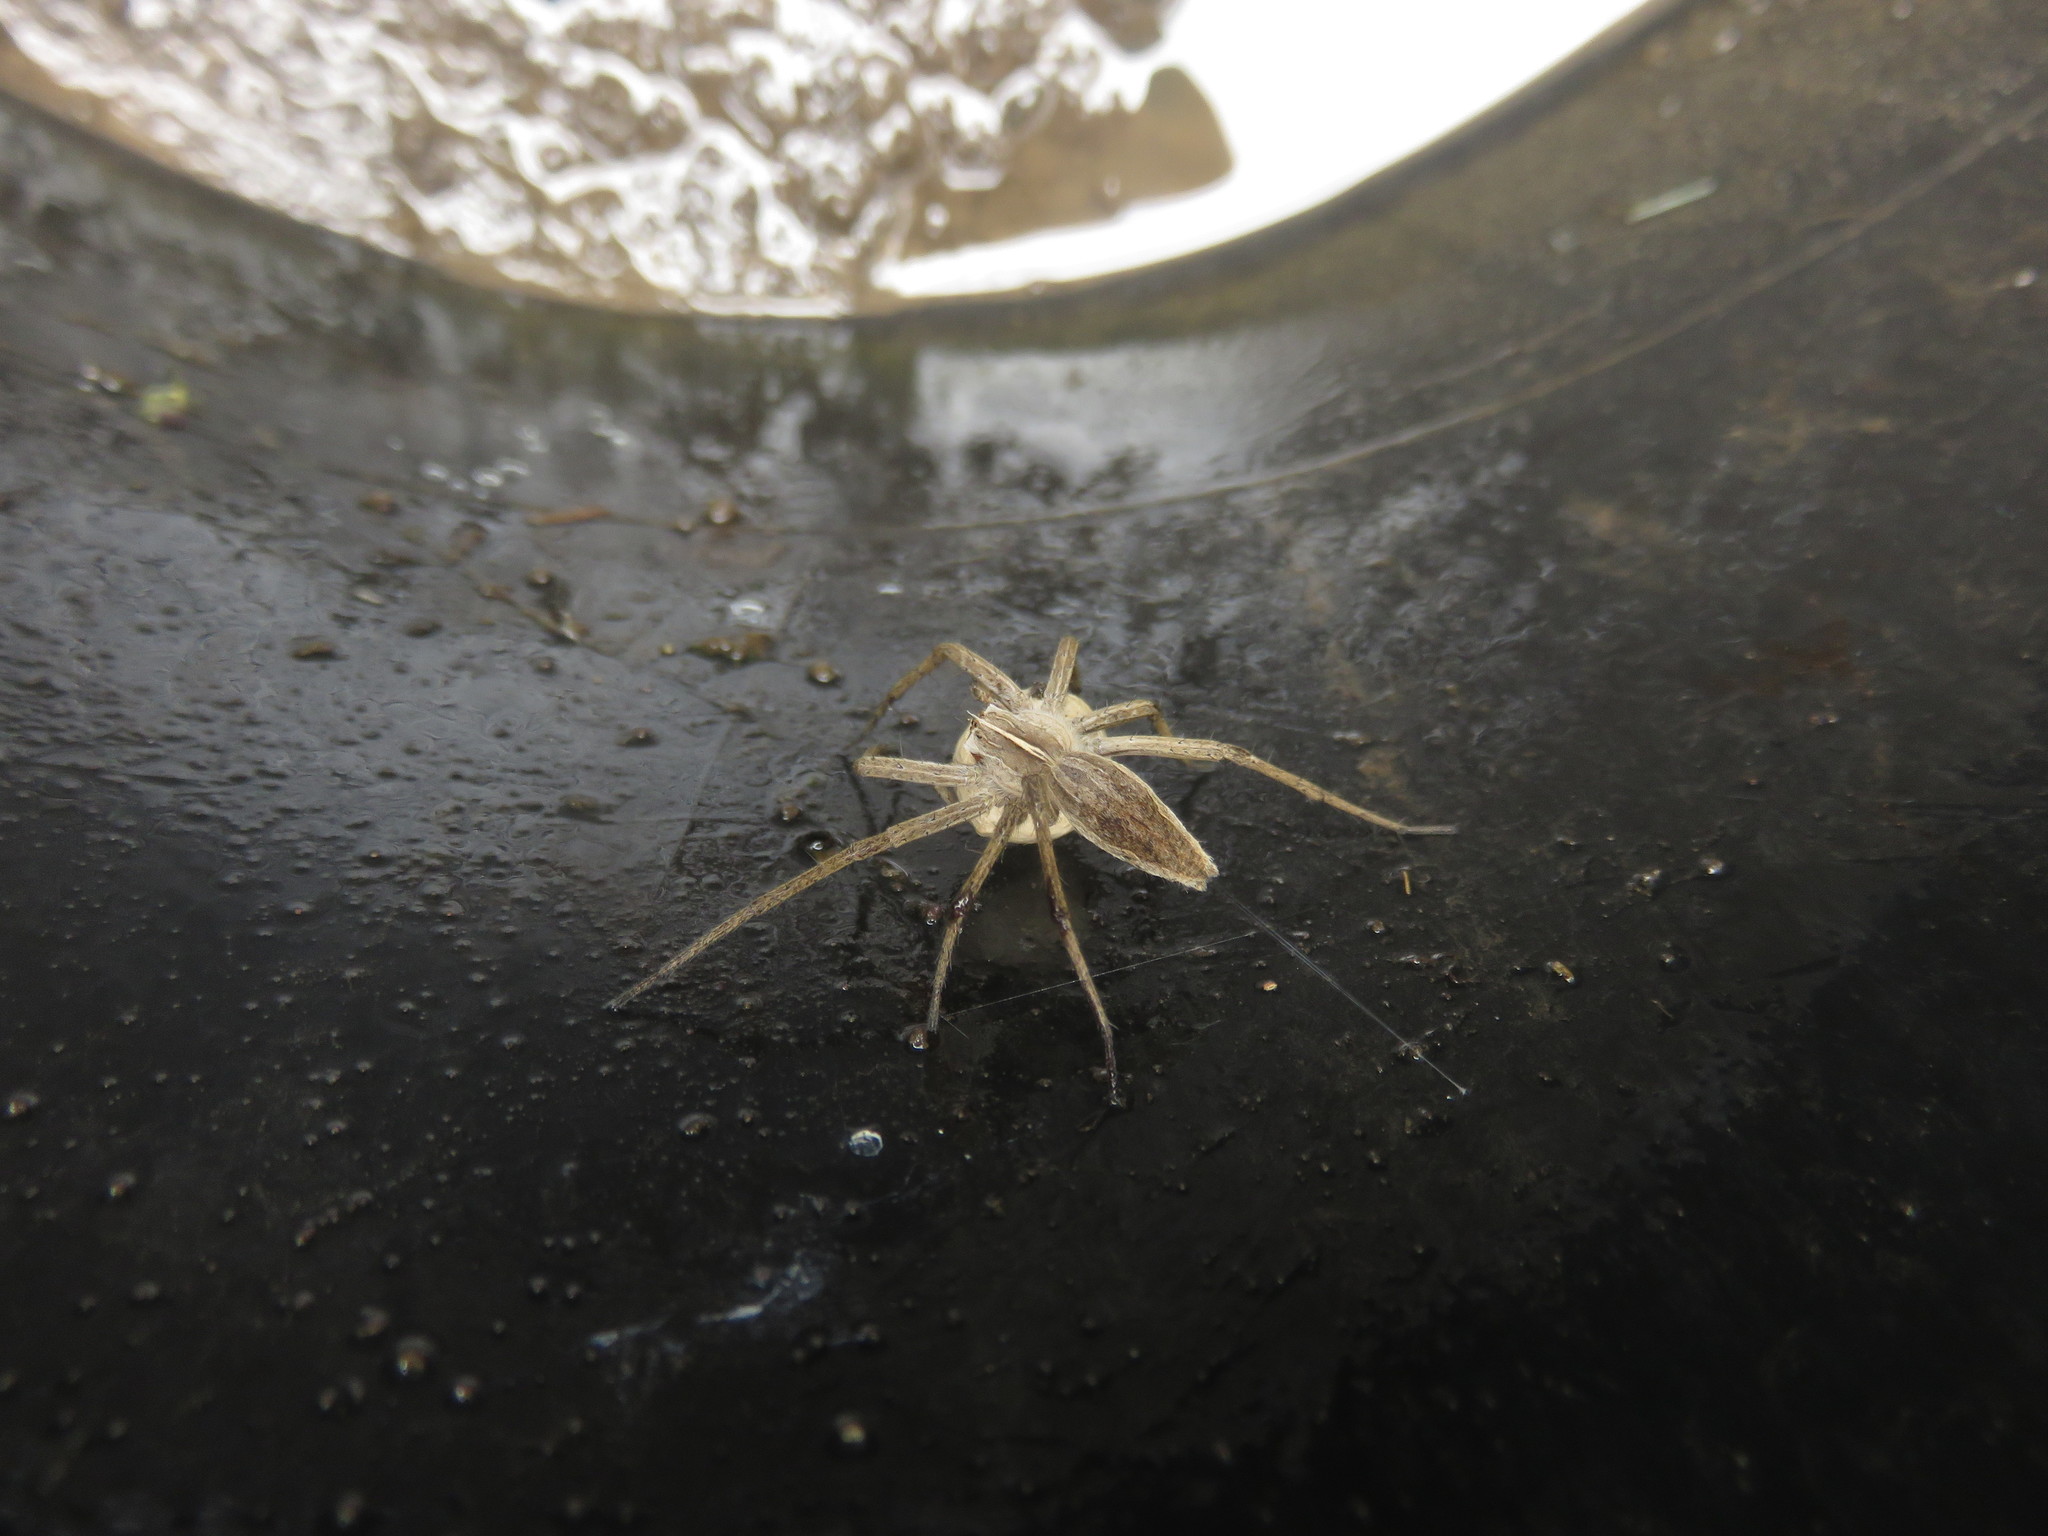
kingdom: Animalia
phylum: Arthropoda
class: Arachnida
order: Araneae
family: Pisauridae
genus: Pisaura
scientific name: Pisaura mirabilis
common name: Tent spider
